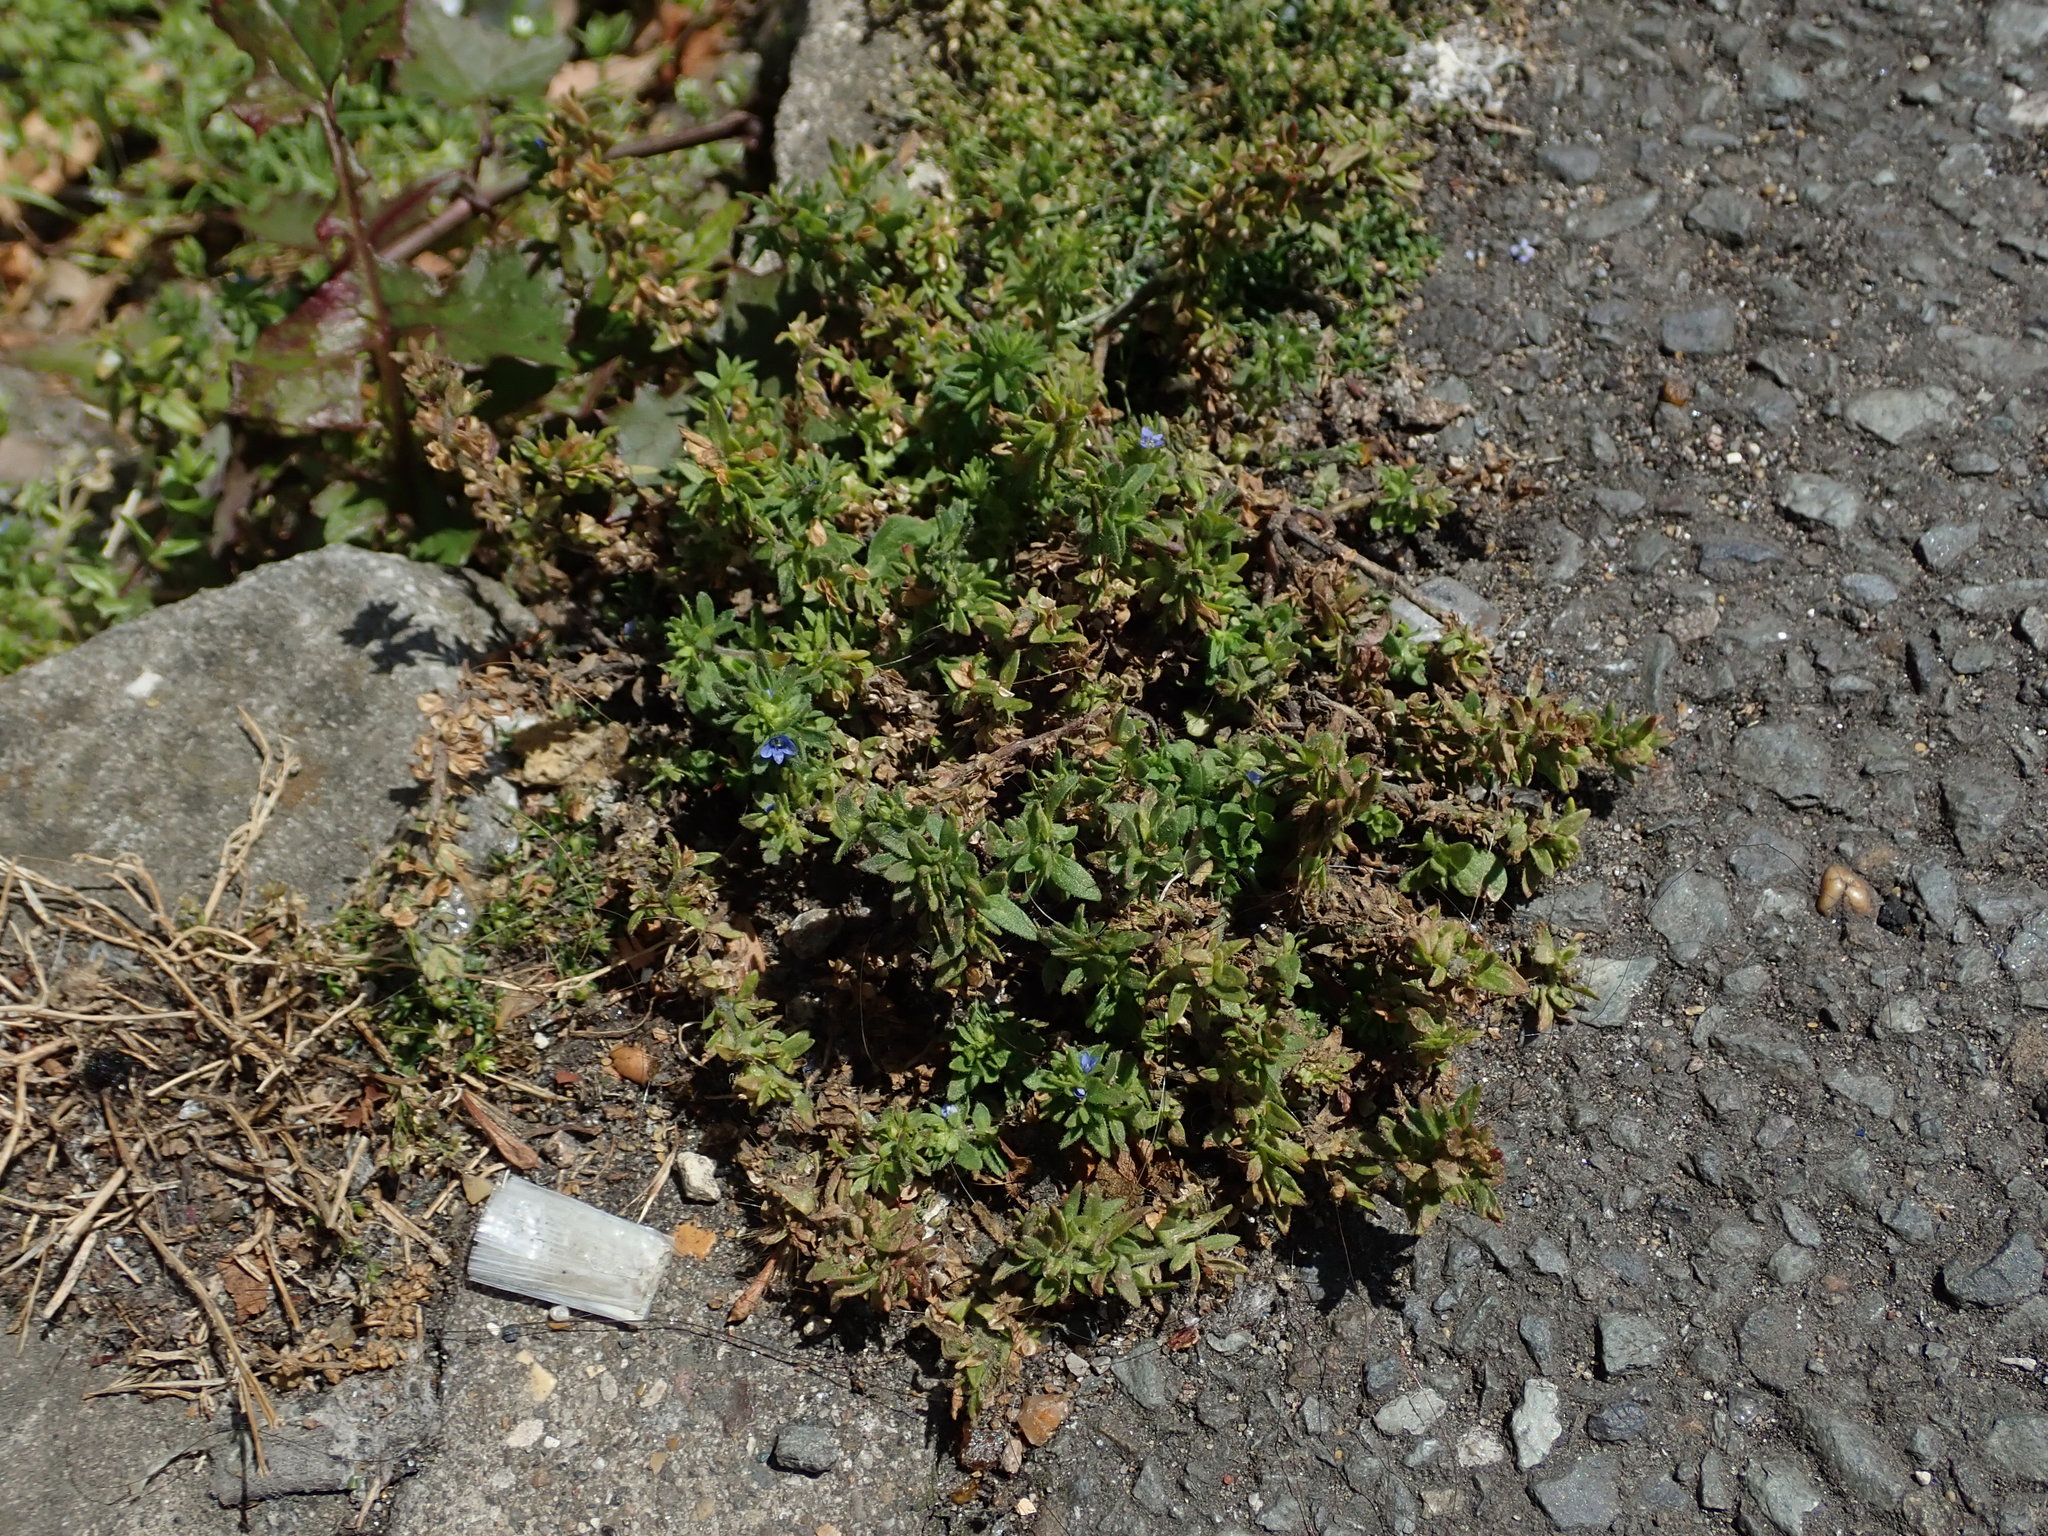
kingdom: Plantae
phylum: Tracheophyta
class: Magnoliopsida
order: Lamiales
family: Plantaginaceae
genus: Veronica
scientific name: Veronica arvensis
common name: Corn speedwell
